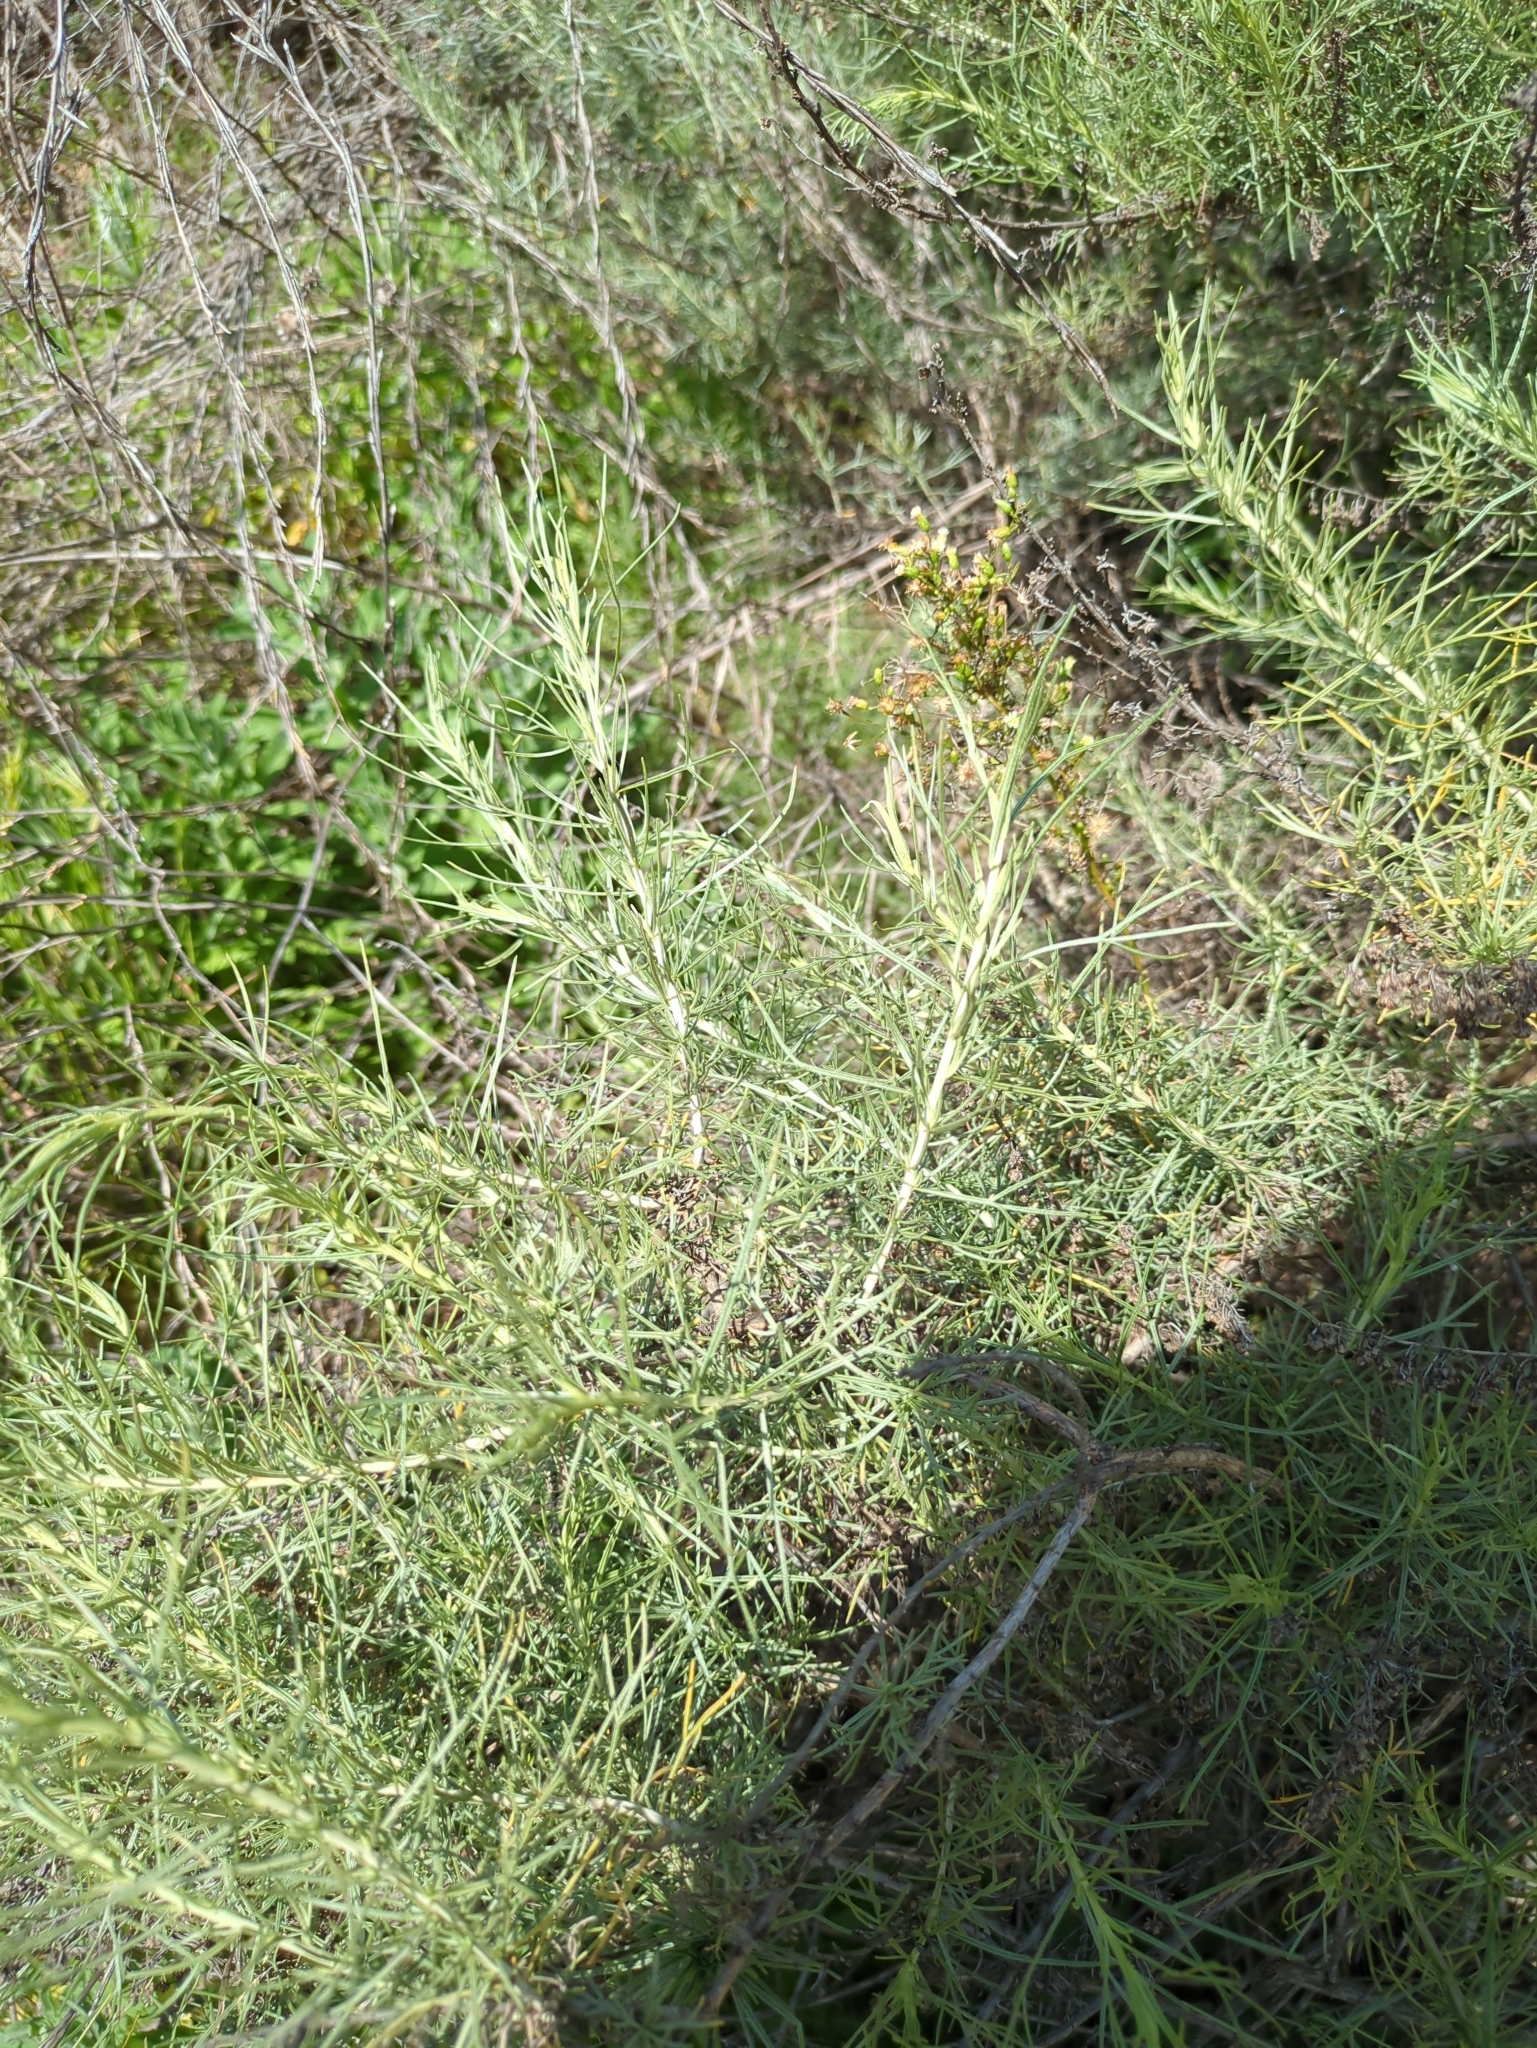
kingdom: Plantae
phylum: Tracheophyta
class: Magnoliopsida
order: Asterales
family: Asteraceae
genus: Artemisia
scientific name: Artemisia californica
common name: California sagebrush
